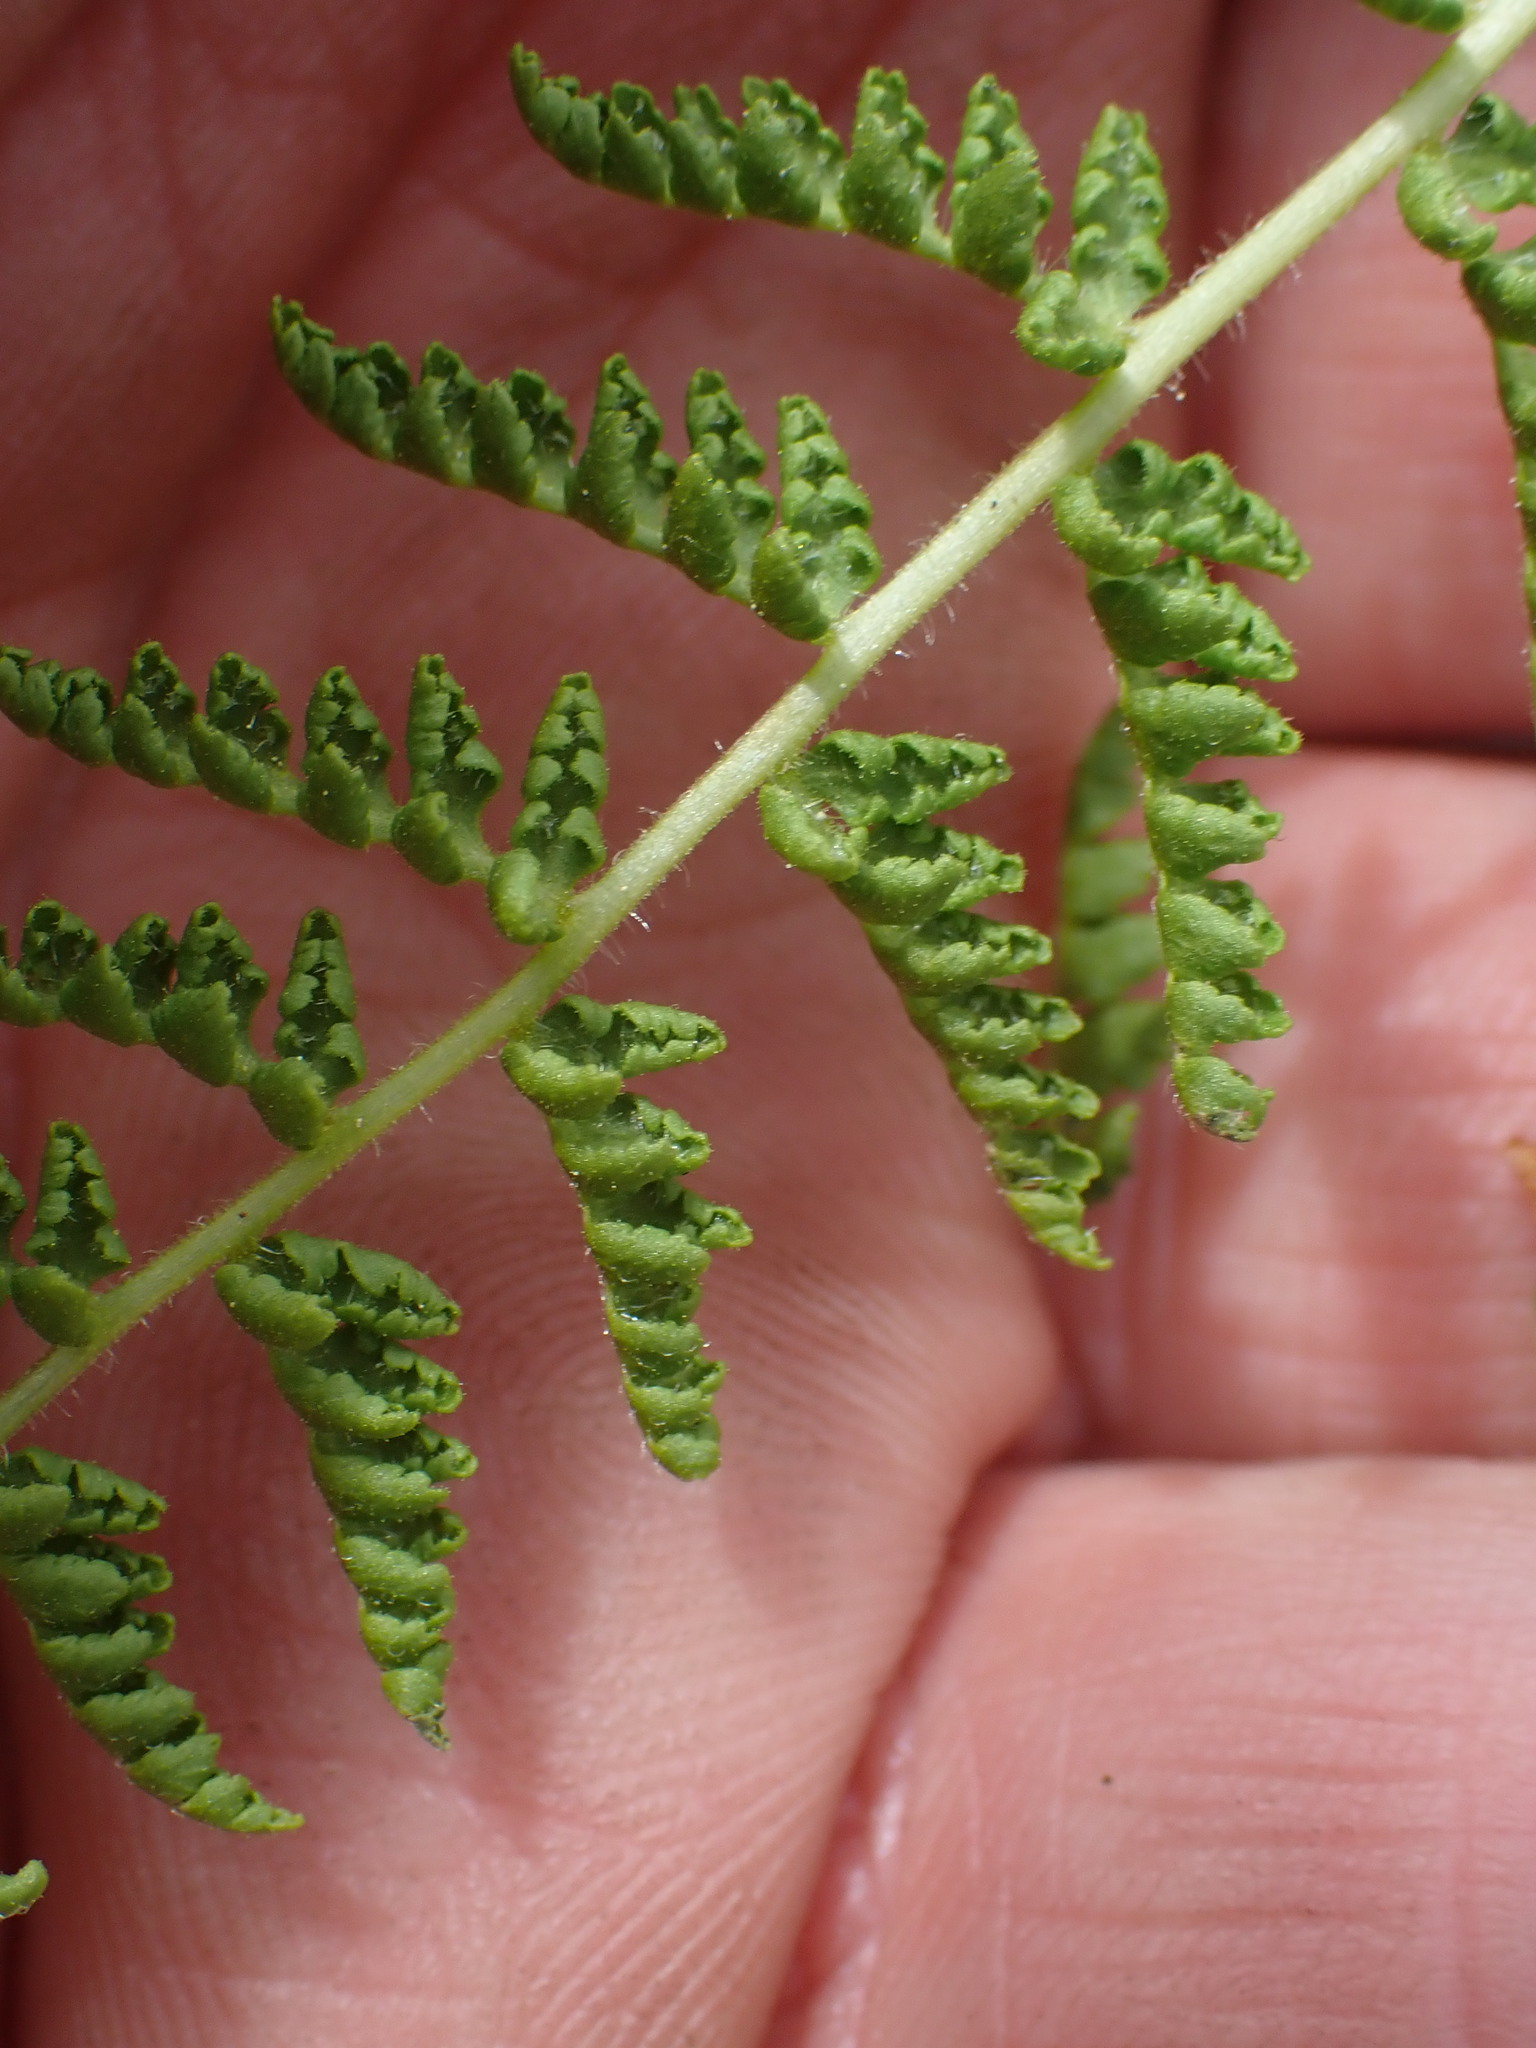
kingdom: Plantae
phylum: Tracheophyta
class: Polypodiopsida
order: Polypodiales
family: Woodsiaceae
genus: Physematium
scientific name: Physematium scopulinum
